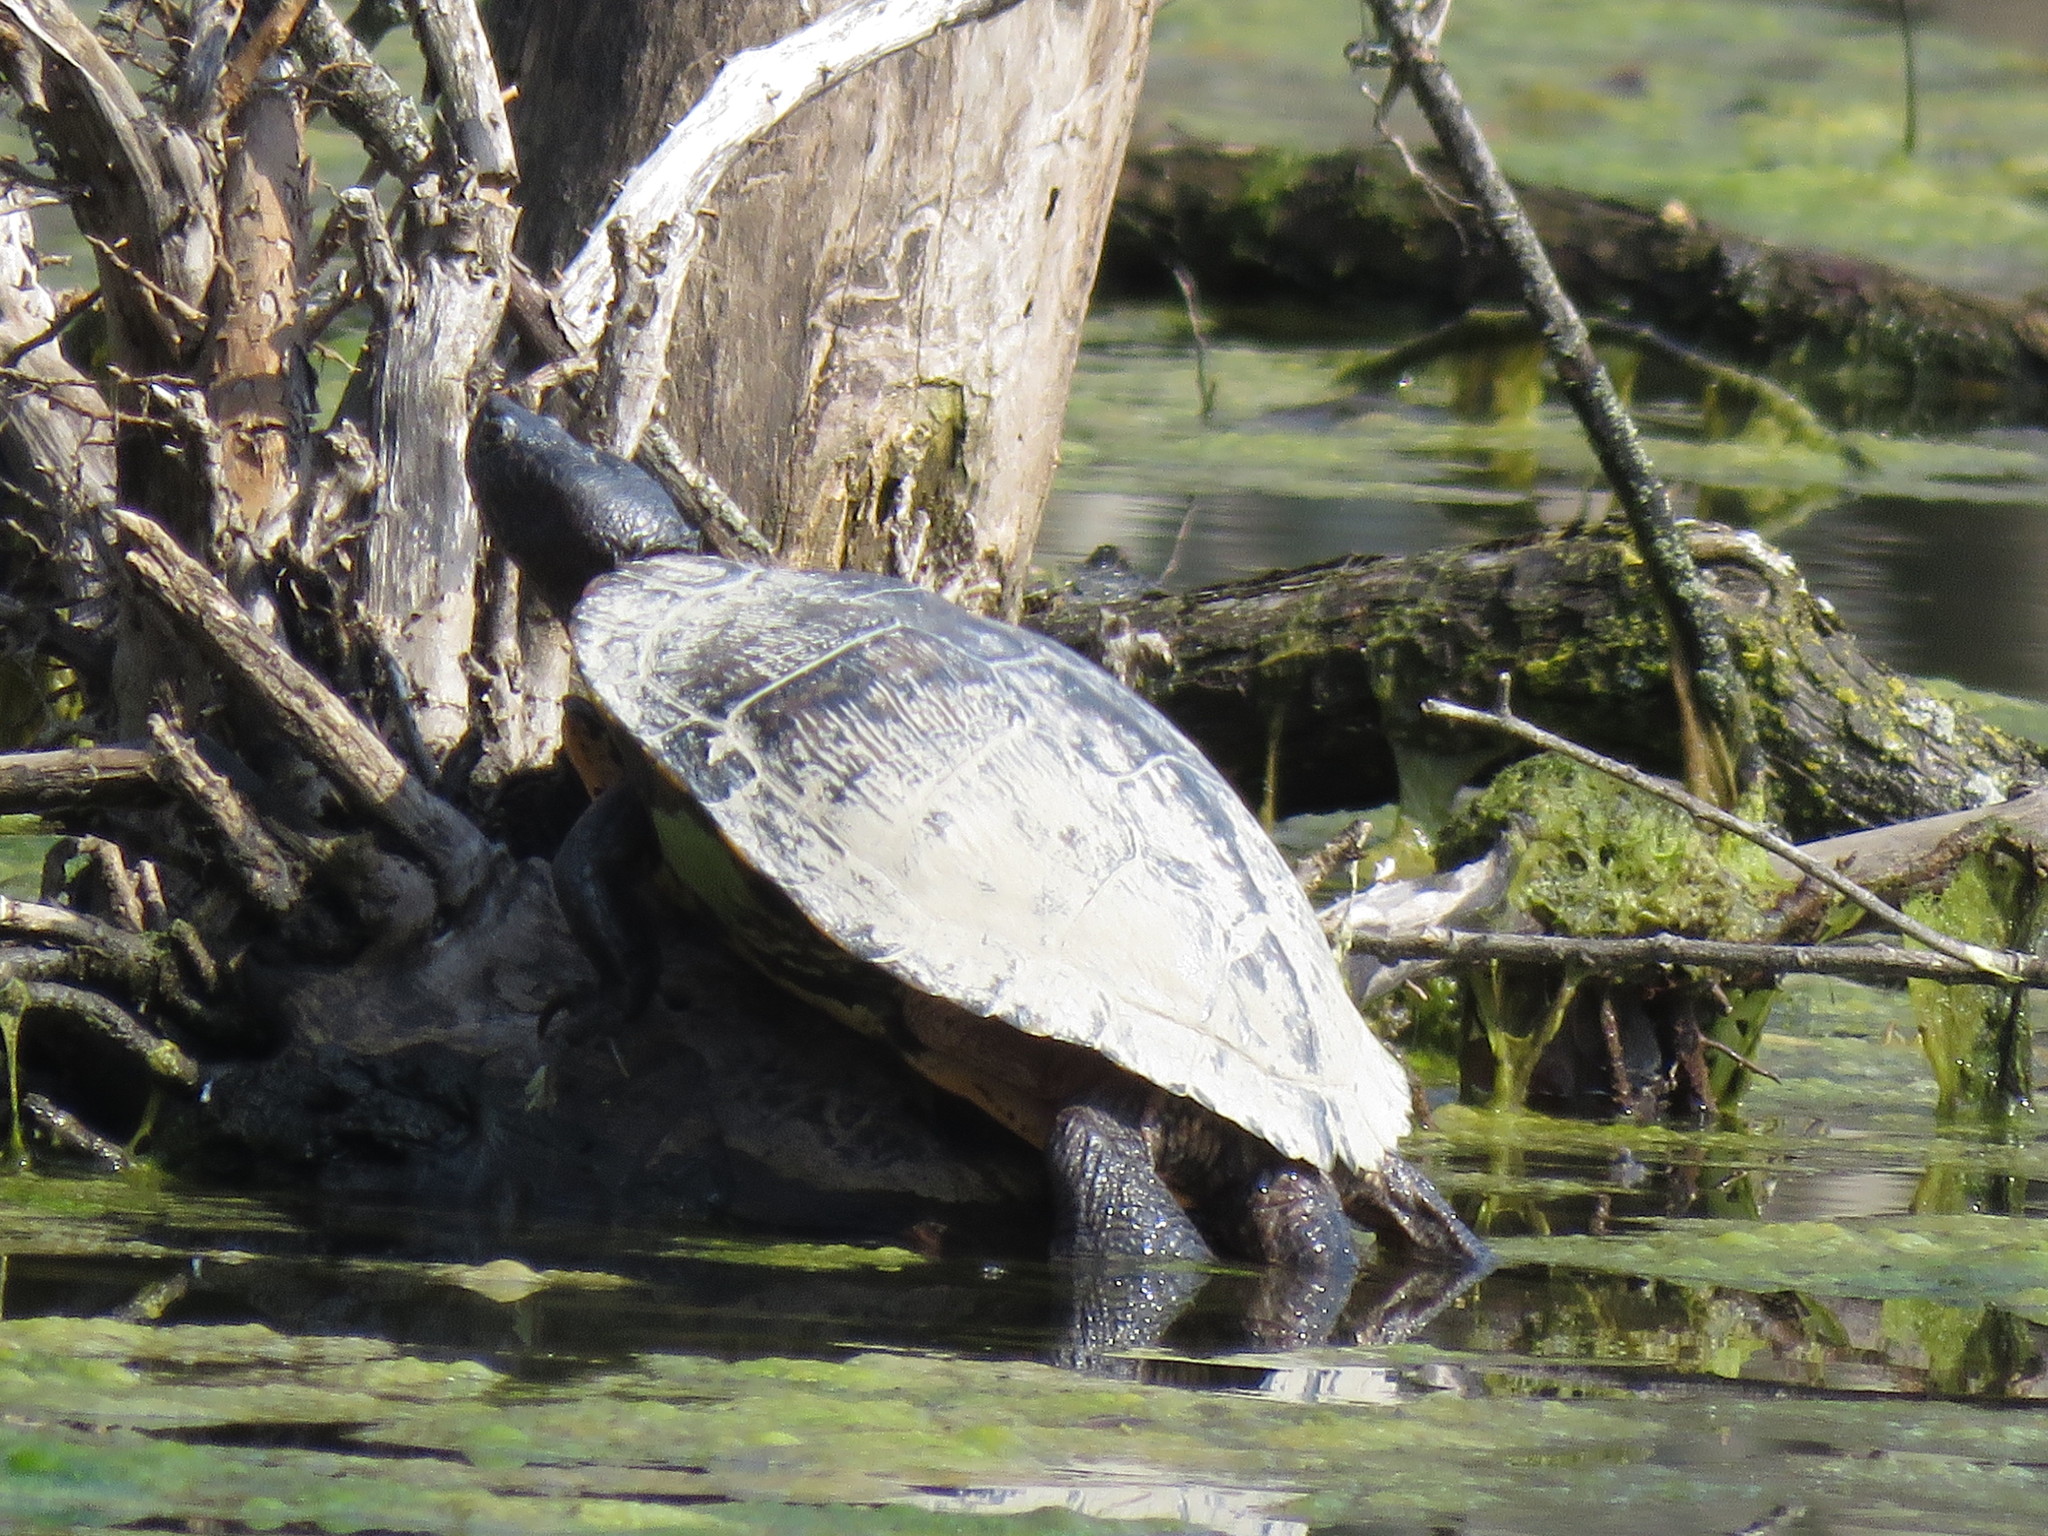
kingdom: Animalia
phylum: Chordata
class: Testudines
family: Emydidae
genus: Trachemys
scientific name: Trachemys scripta
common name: Slider
